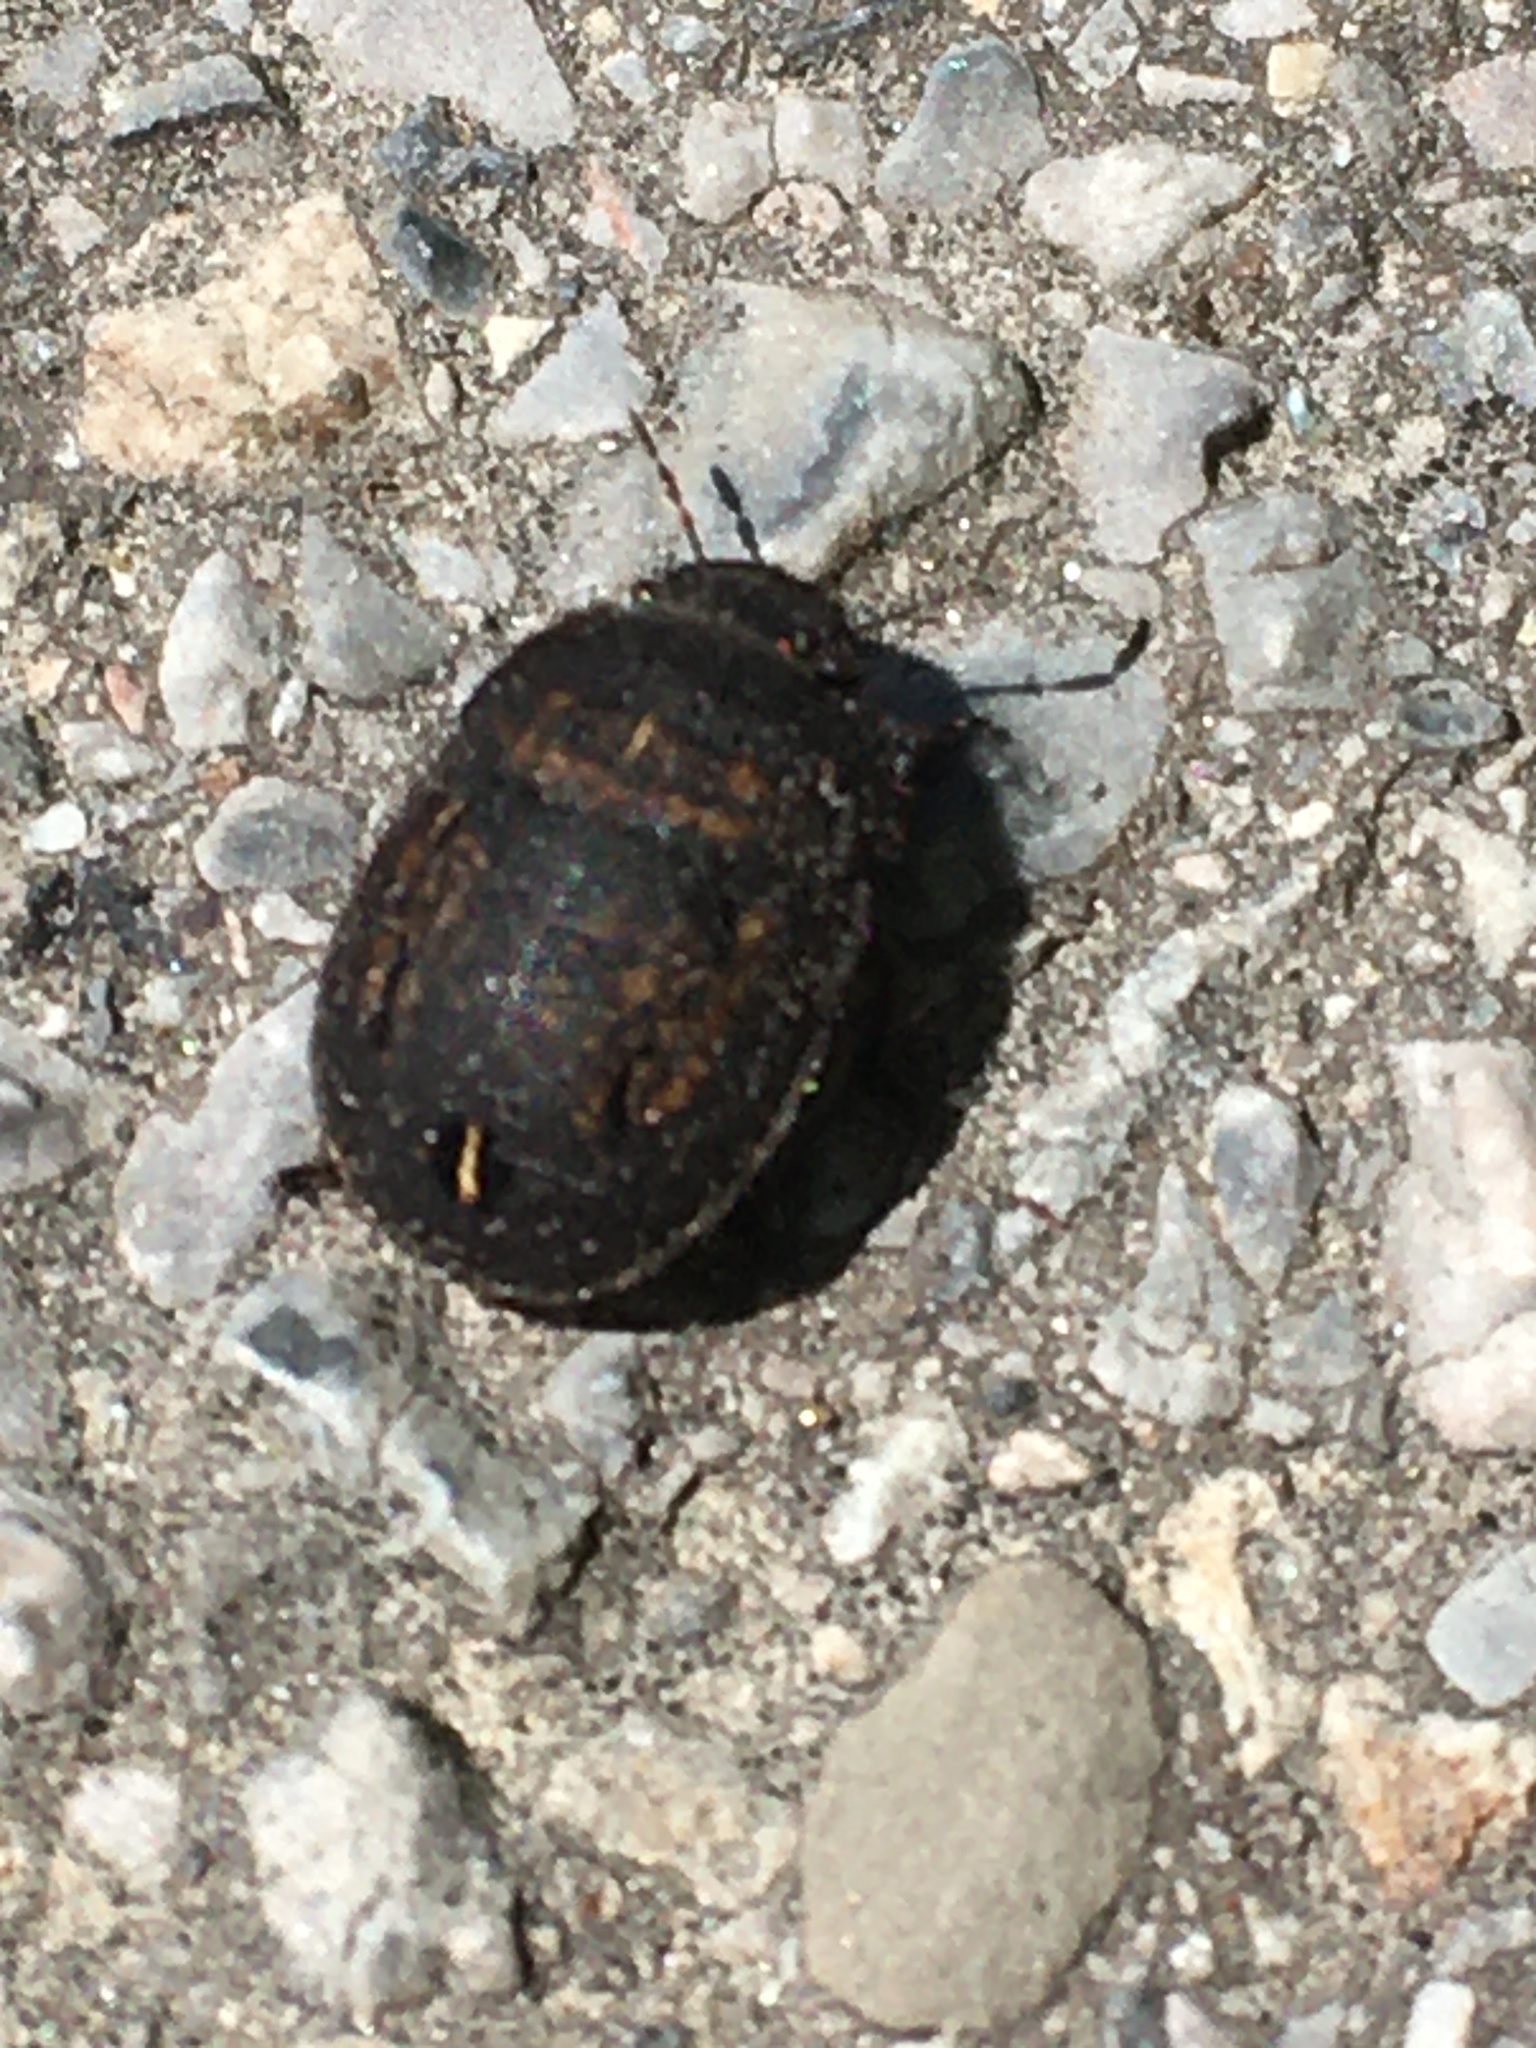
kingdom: Animalia
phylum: Arthropoda
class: Insecta
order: Hemiptera
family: Scutelleridae
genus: Odontoscelis
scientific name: Odontoscelis fuliginosa
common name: Greater streaked shieldbug
